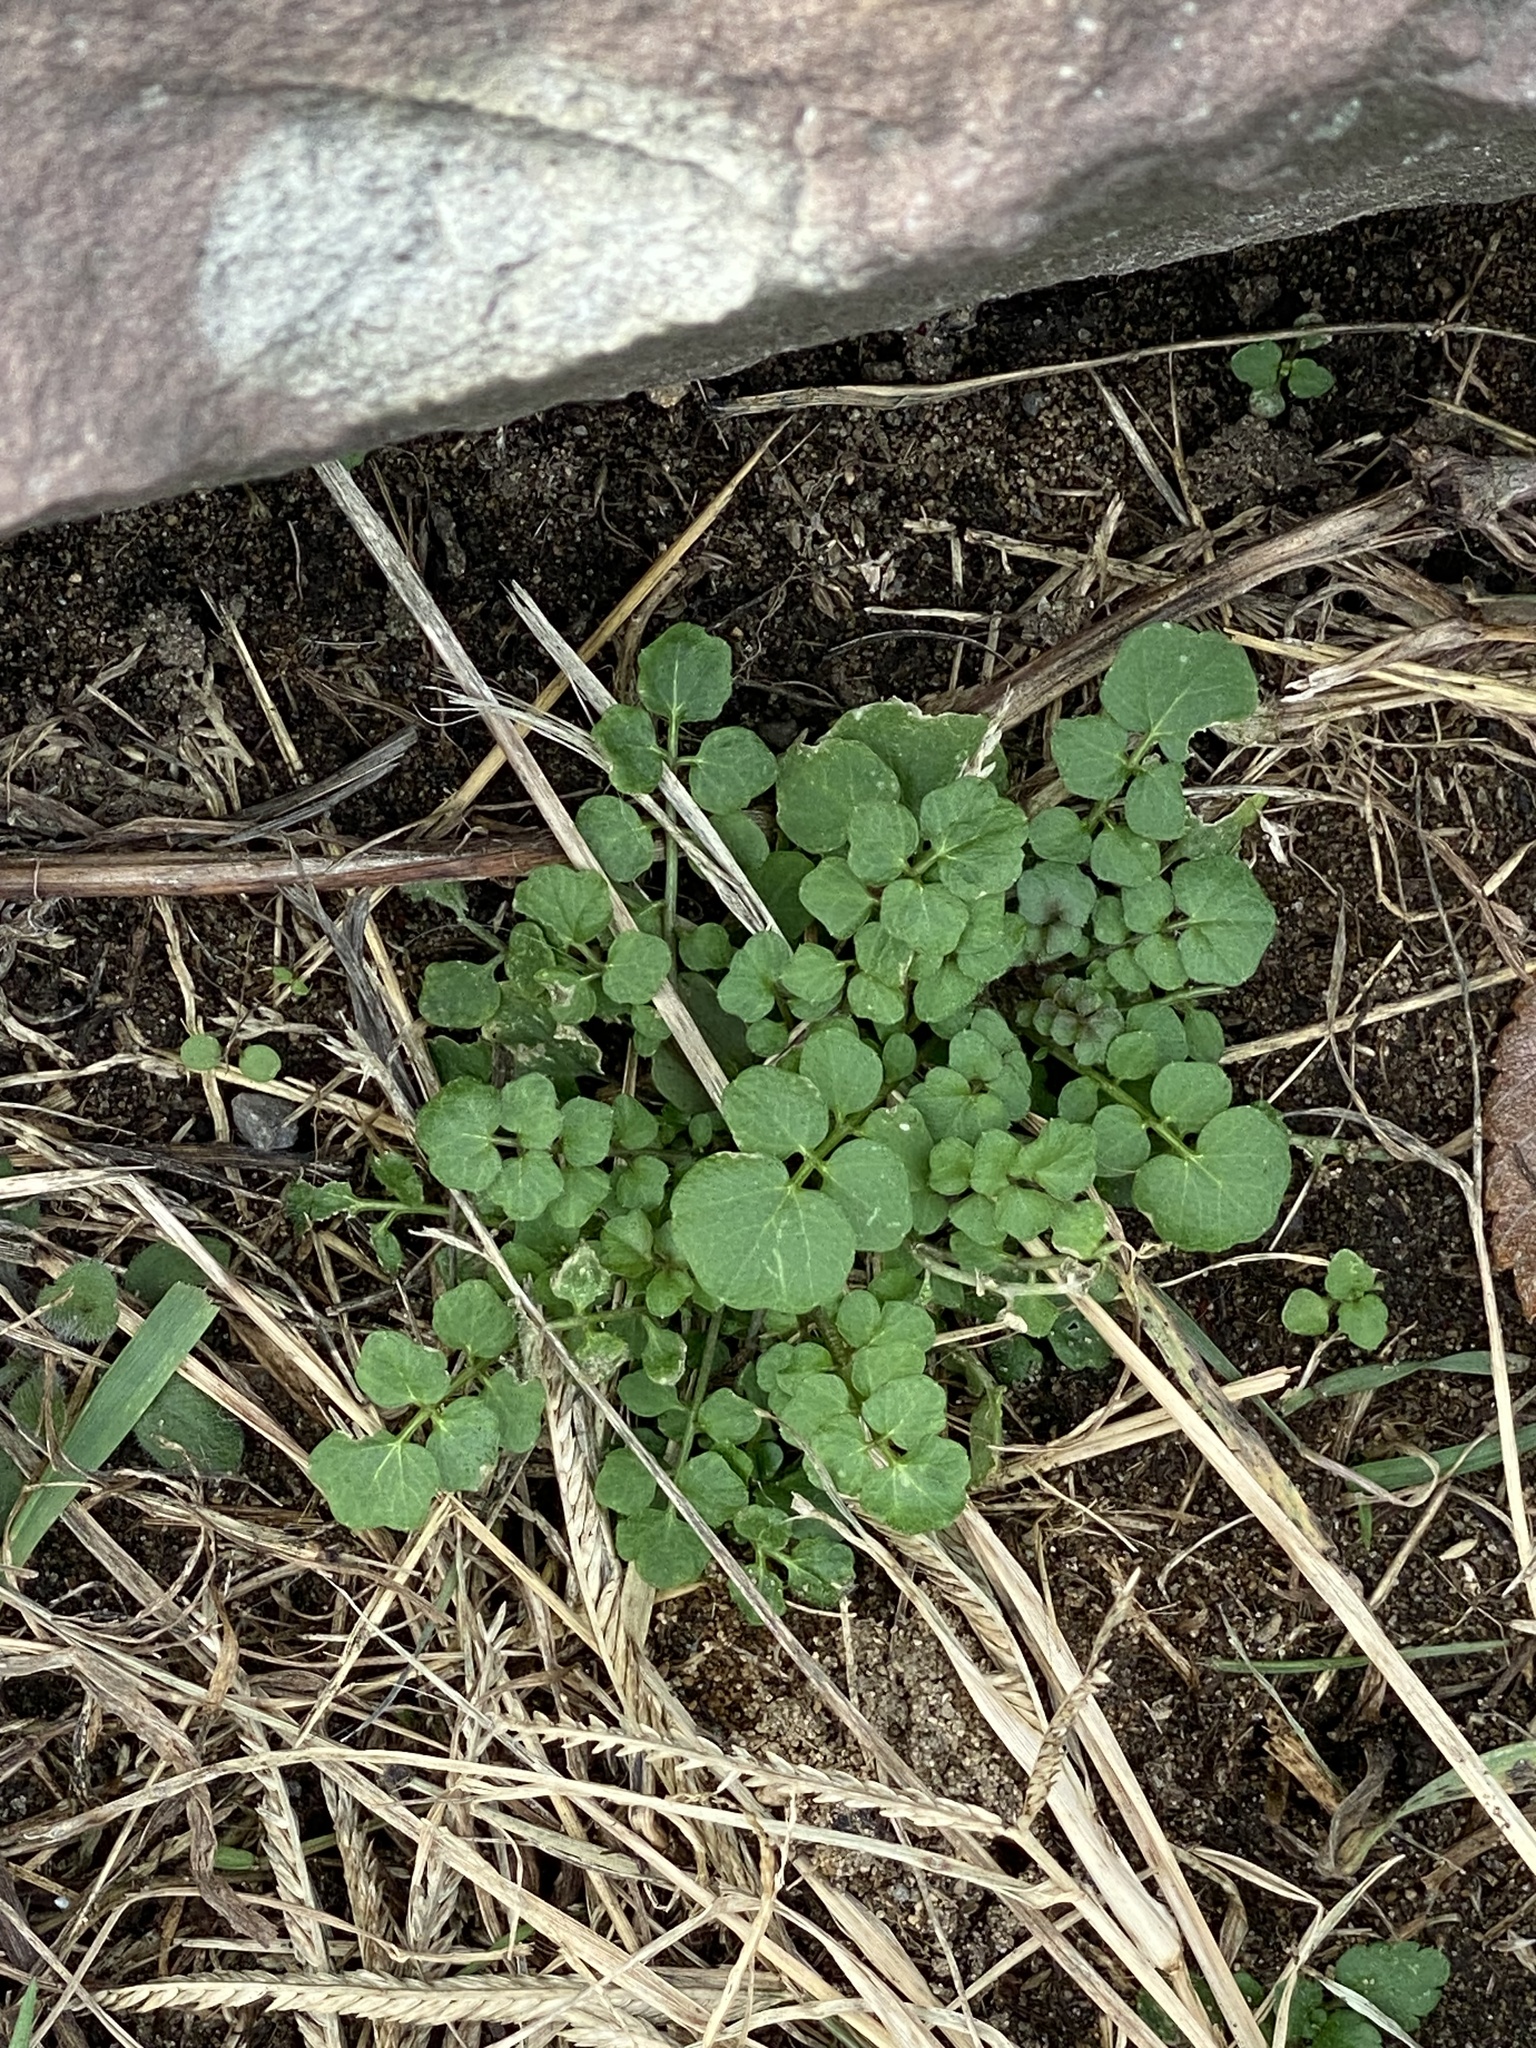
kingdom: Plantae
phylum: Tracheophyta
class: Magnoliopsida
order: Brassicales
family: Brassicaceae
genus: Cardamine
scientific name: Cardamine hirsuta
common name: Hairy bittercress
